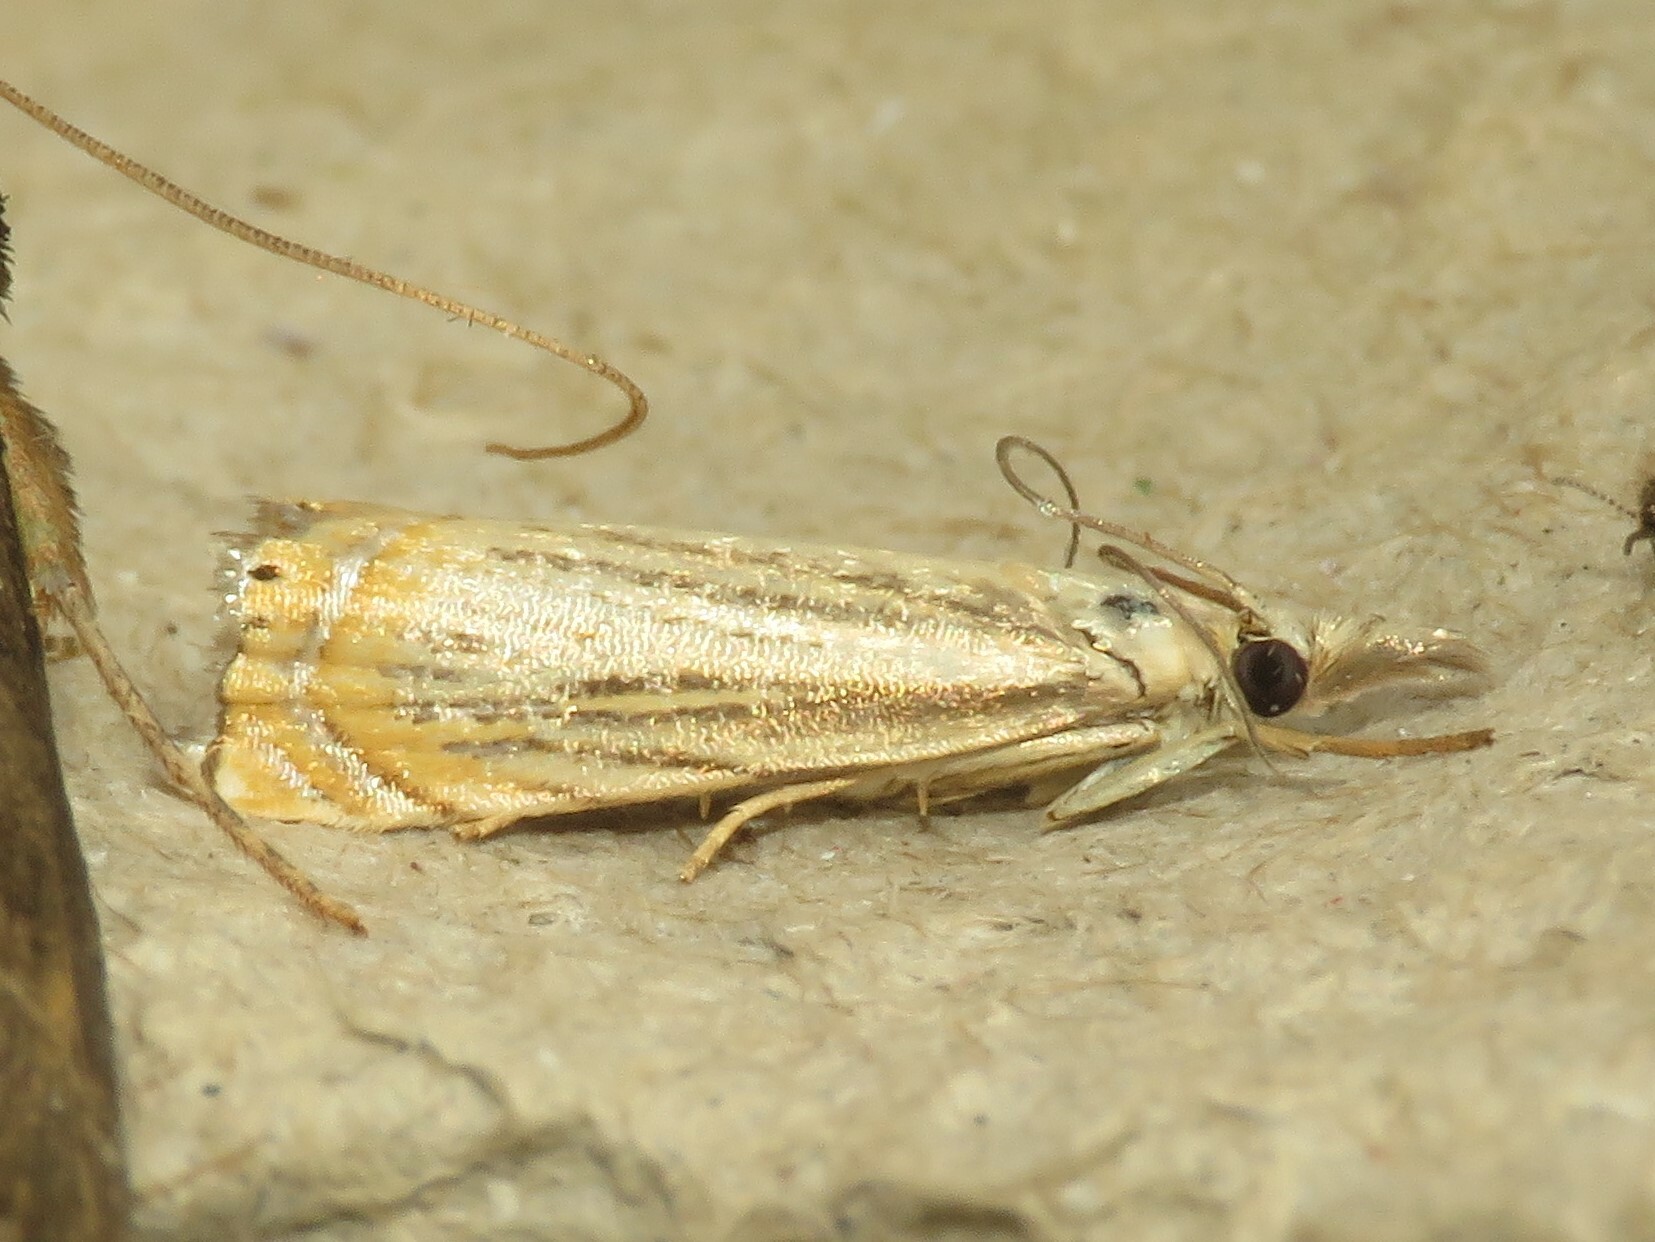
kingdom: Animalia
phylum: Arthropoda
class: Insecta
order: Lepidoptera
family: Crambidae
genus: Chrysoteuchia
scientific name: Chrysoteuchia topiarius
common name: Topiary grass-veneer
